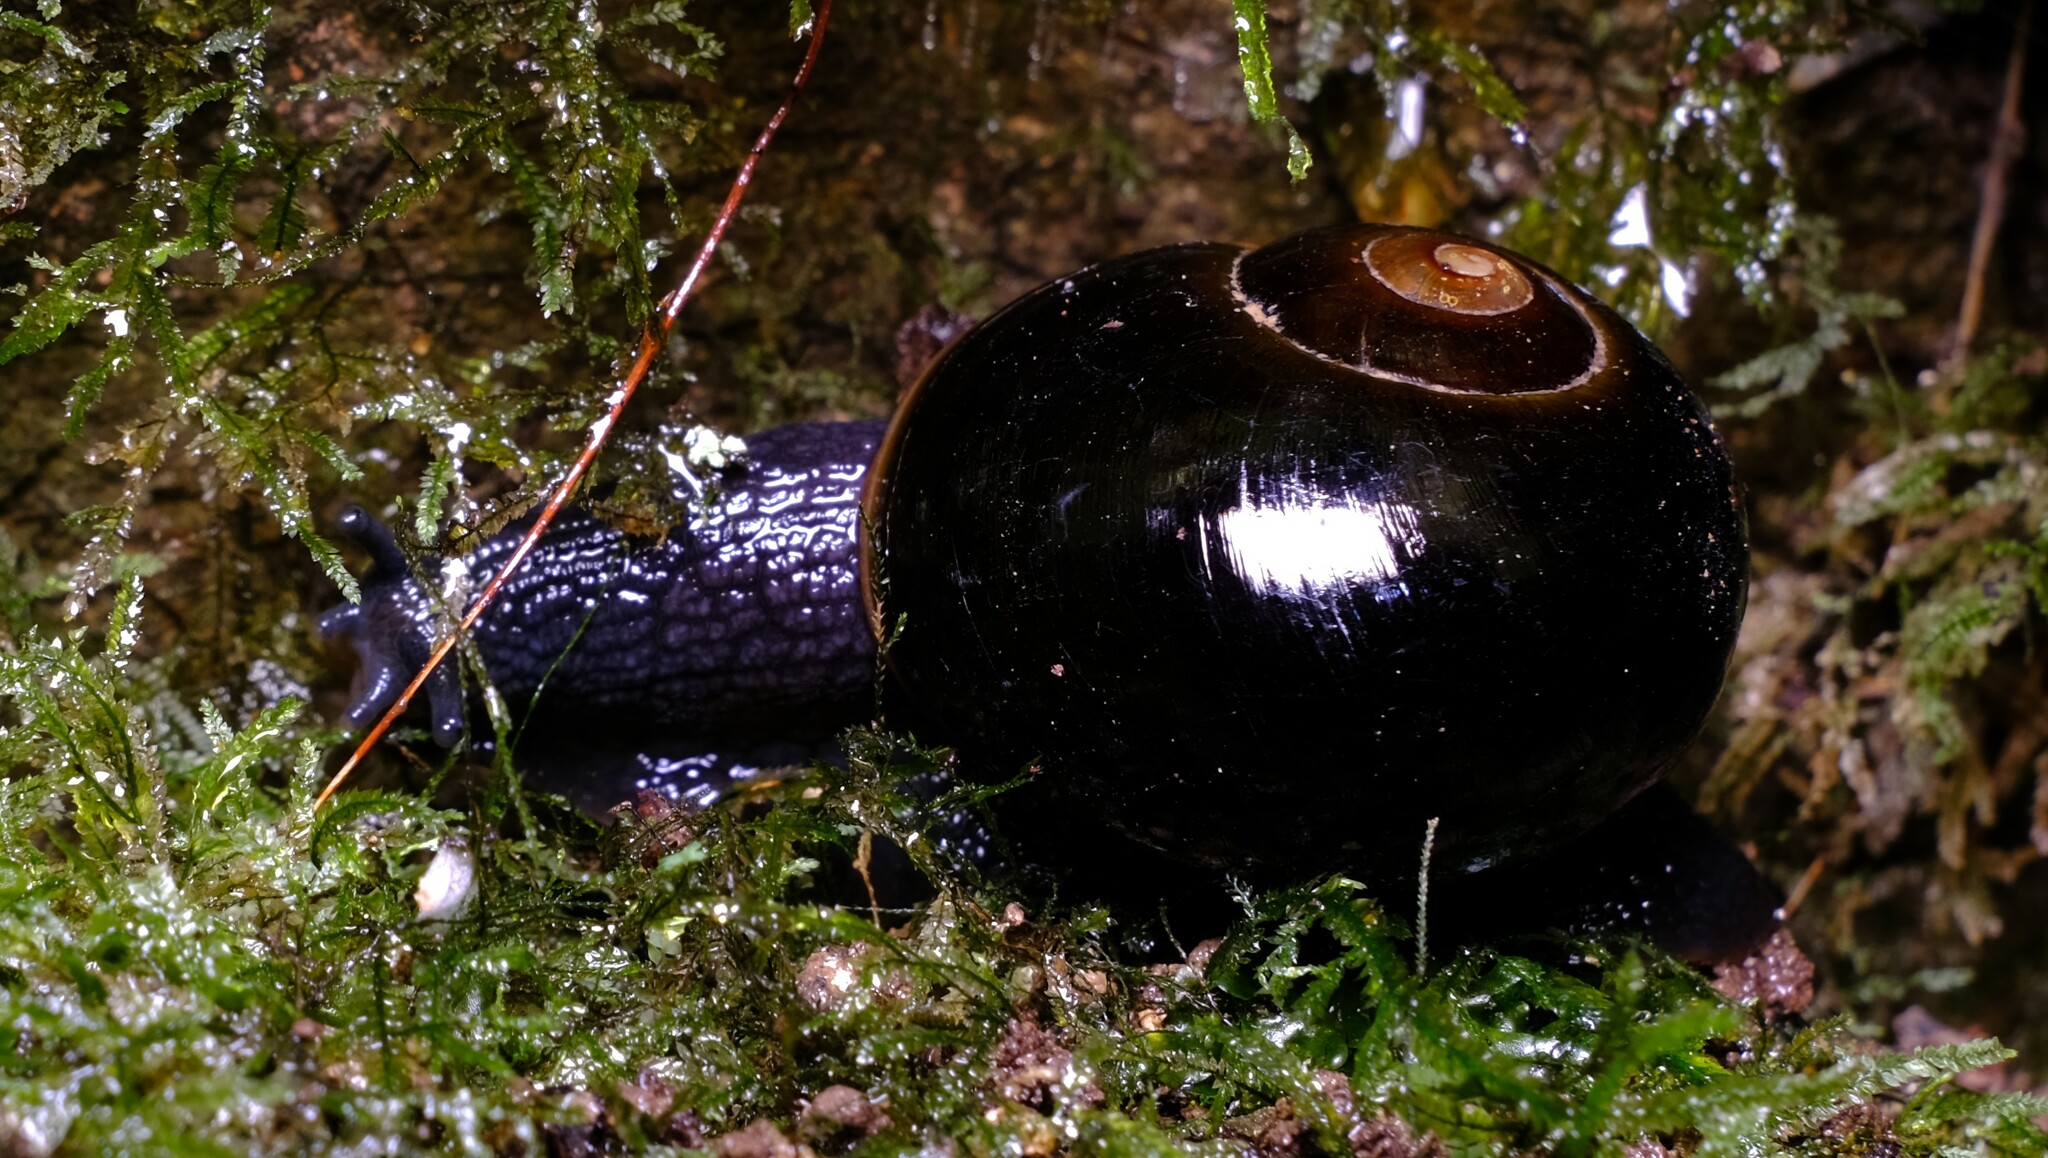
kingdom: Animalia
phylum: Mollusca
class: Gastropoda
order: Stylommatophora
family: Rhytididae
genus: Victaphanta
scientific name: Victaphanta compacta
